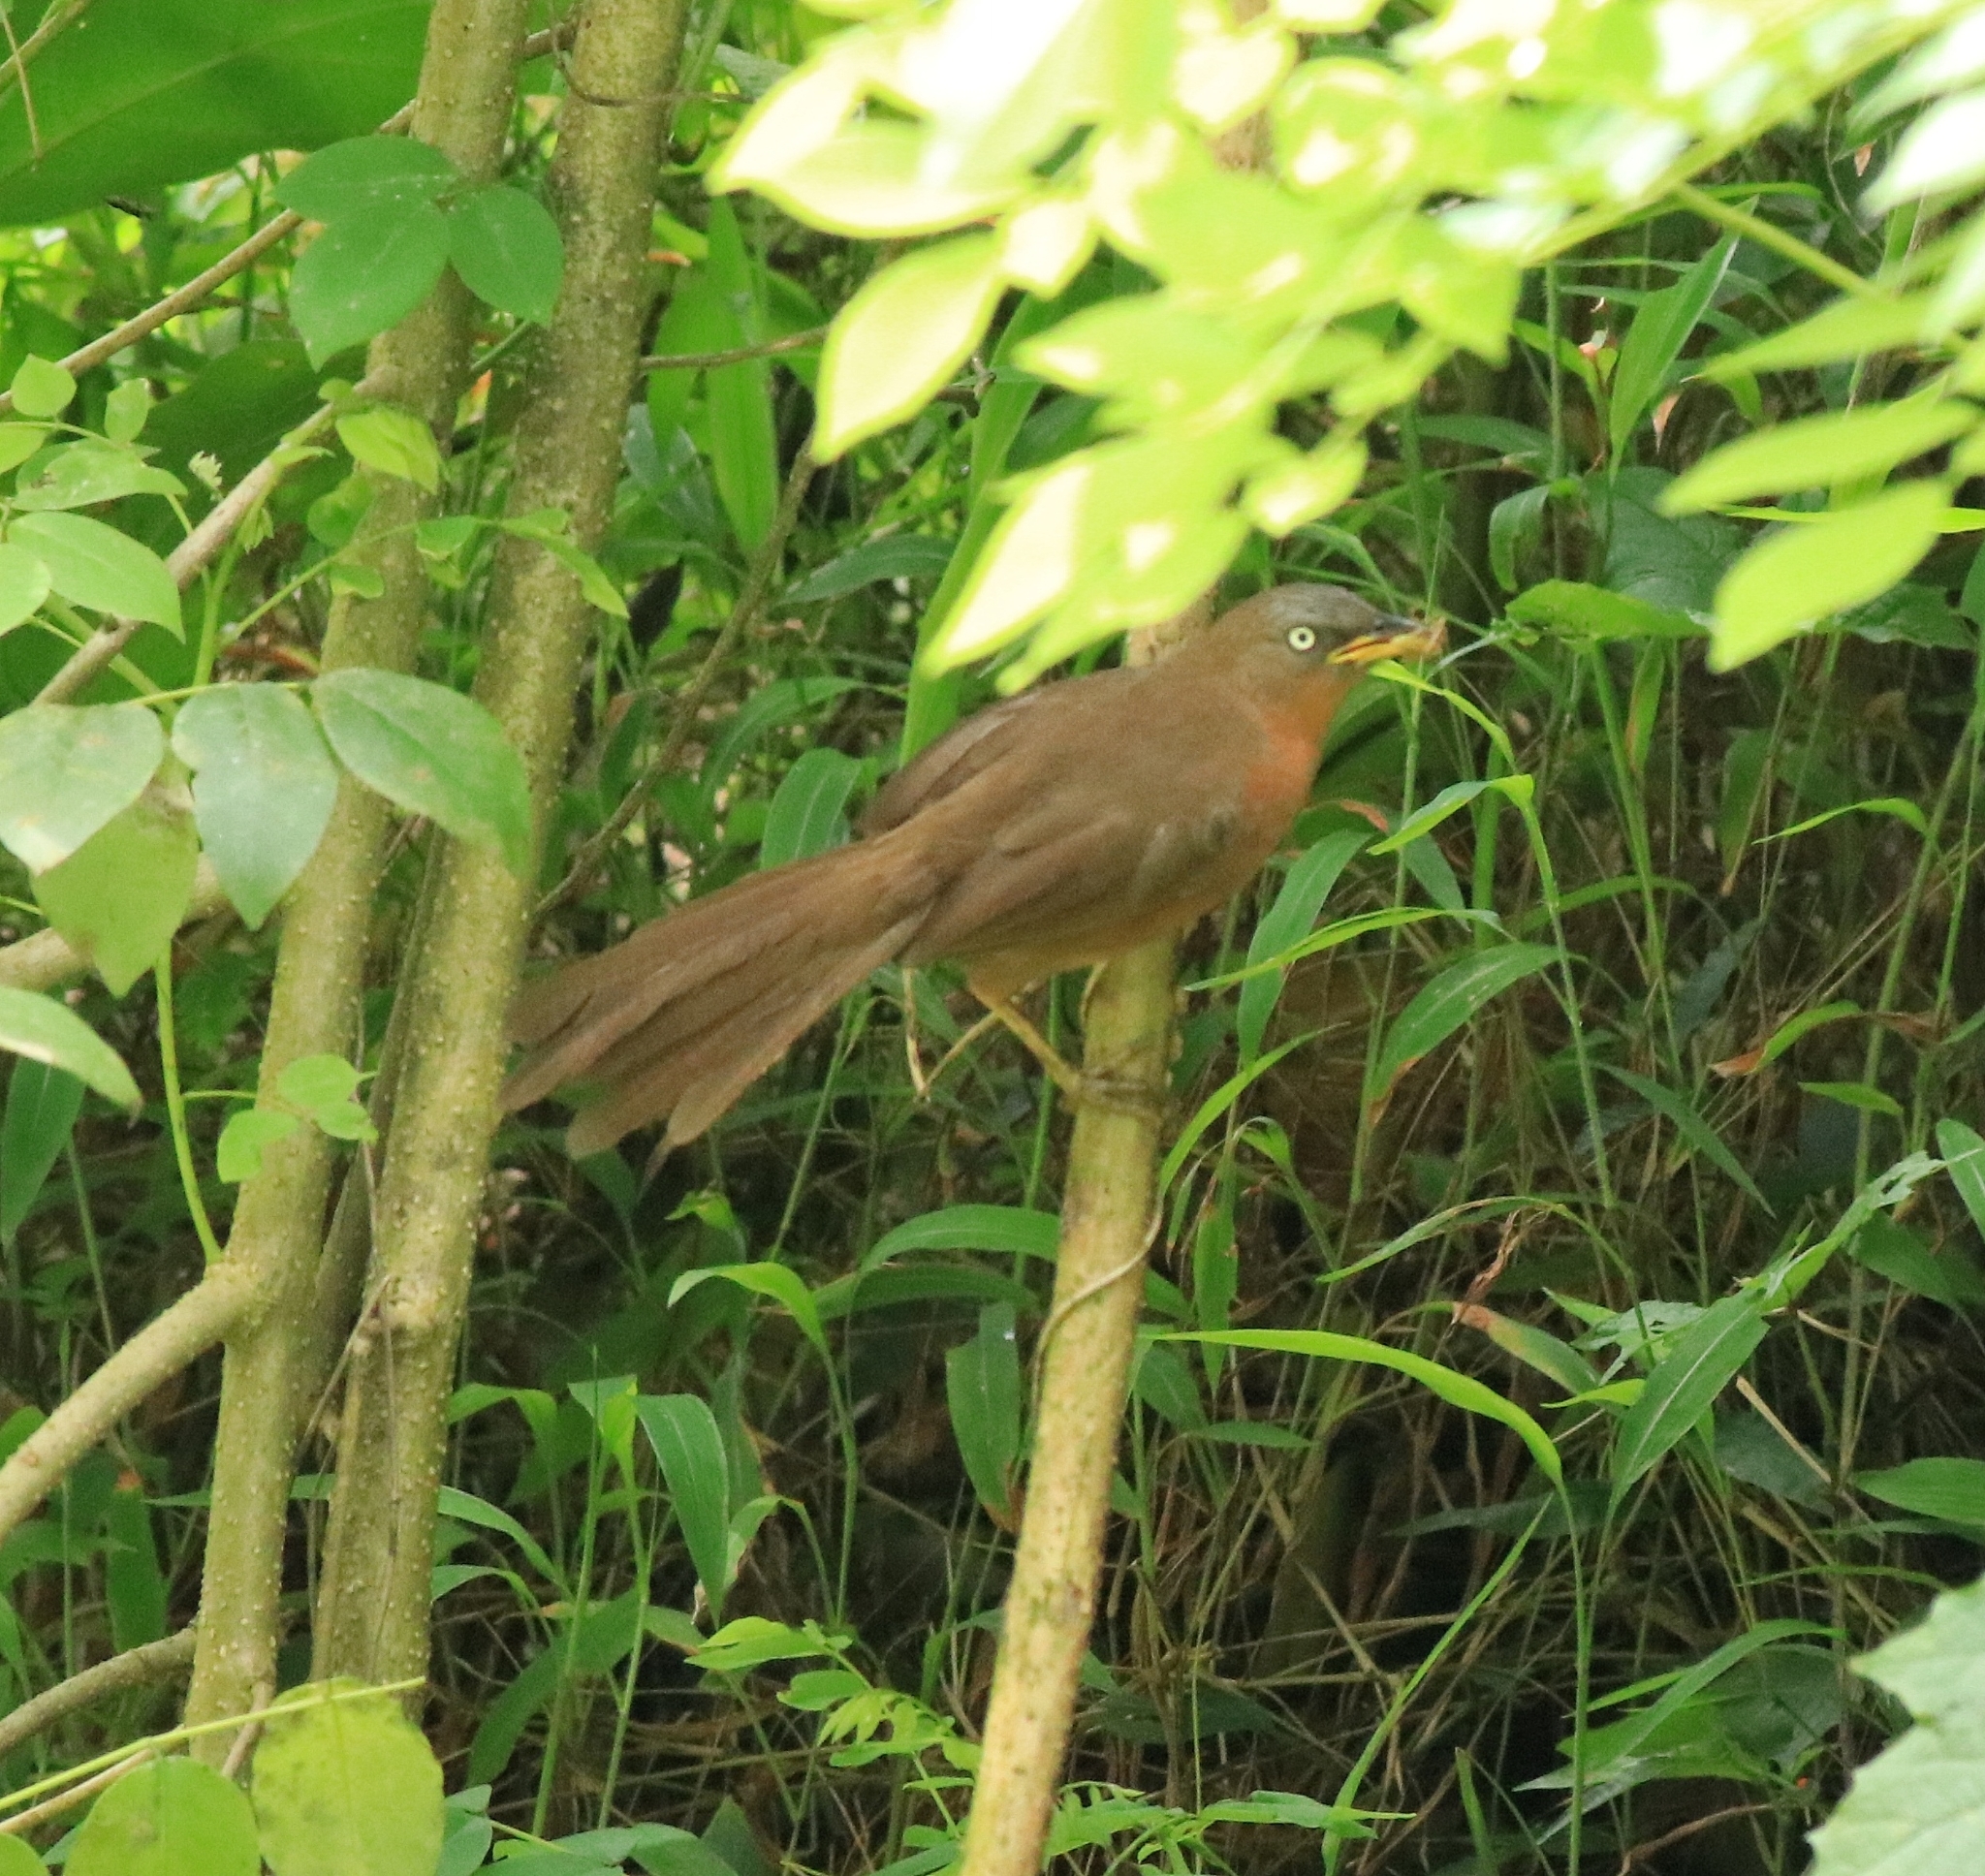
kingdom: Animalia
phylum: Chordata
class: Aves
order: Passeriformes
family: Leiothrichidae
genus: Turdoides
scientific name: Turdoides subrufa
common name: Rufous babbler
